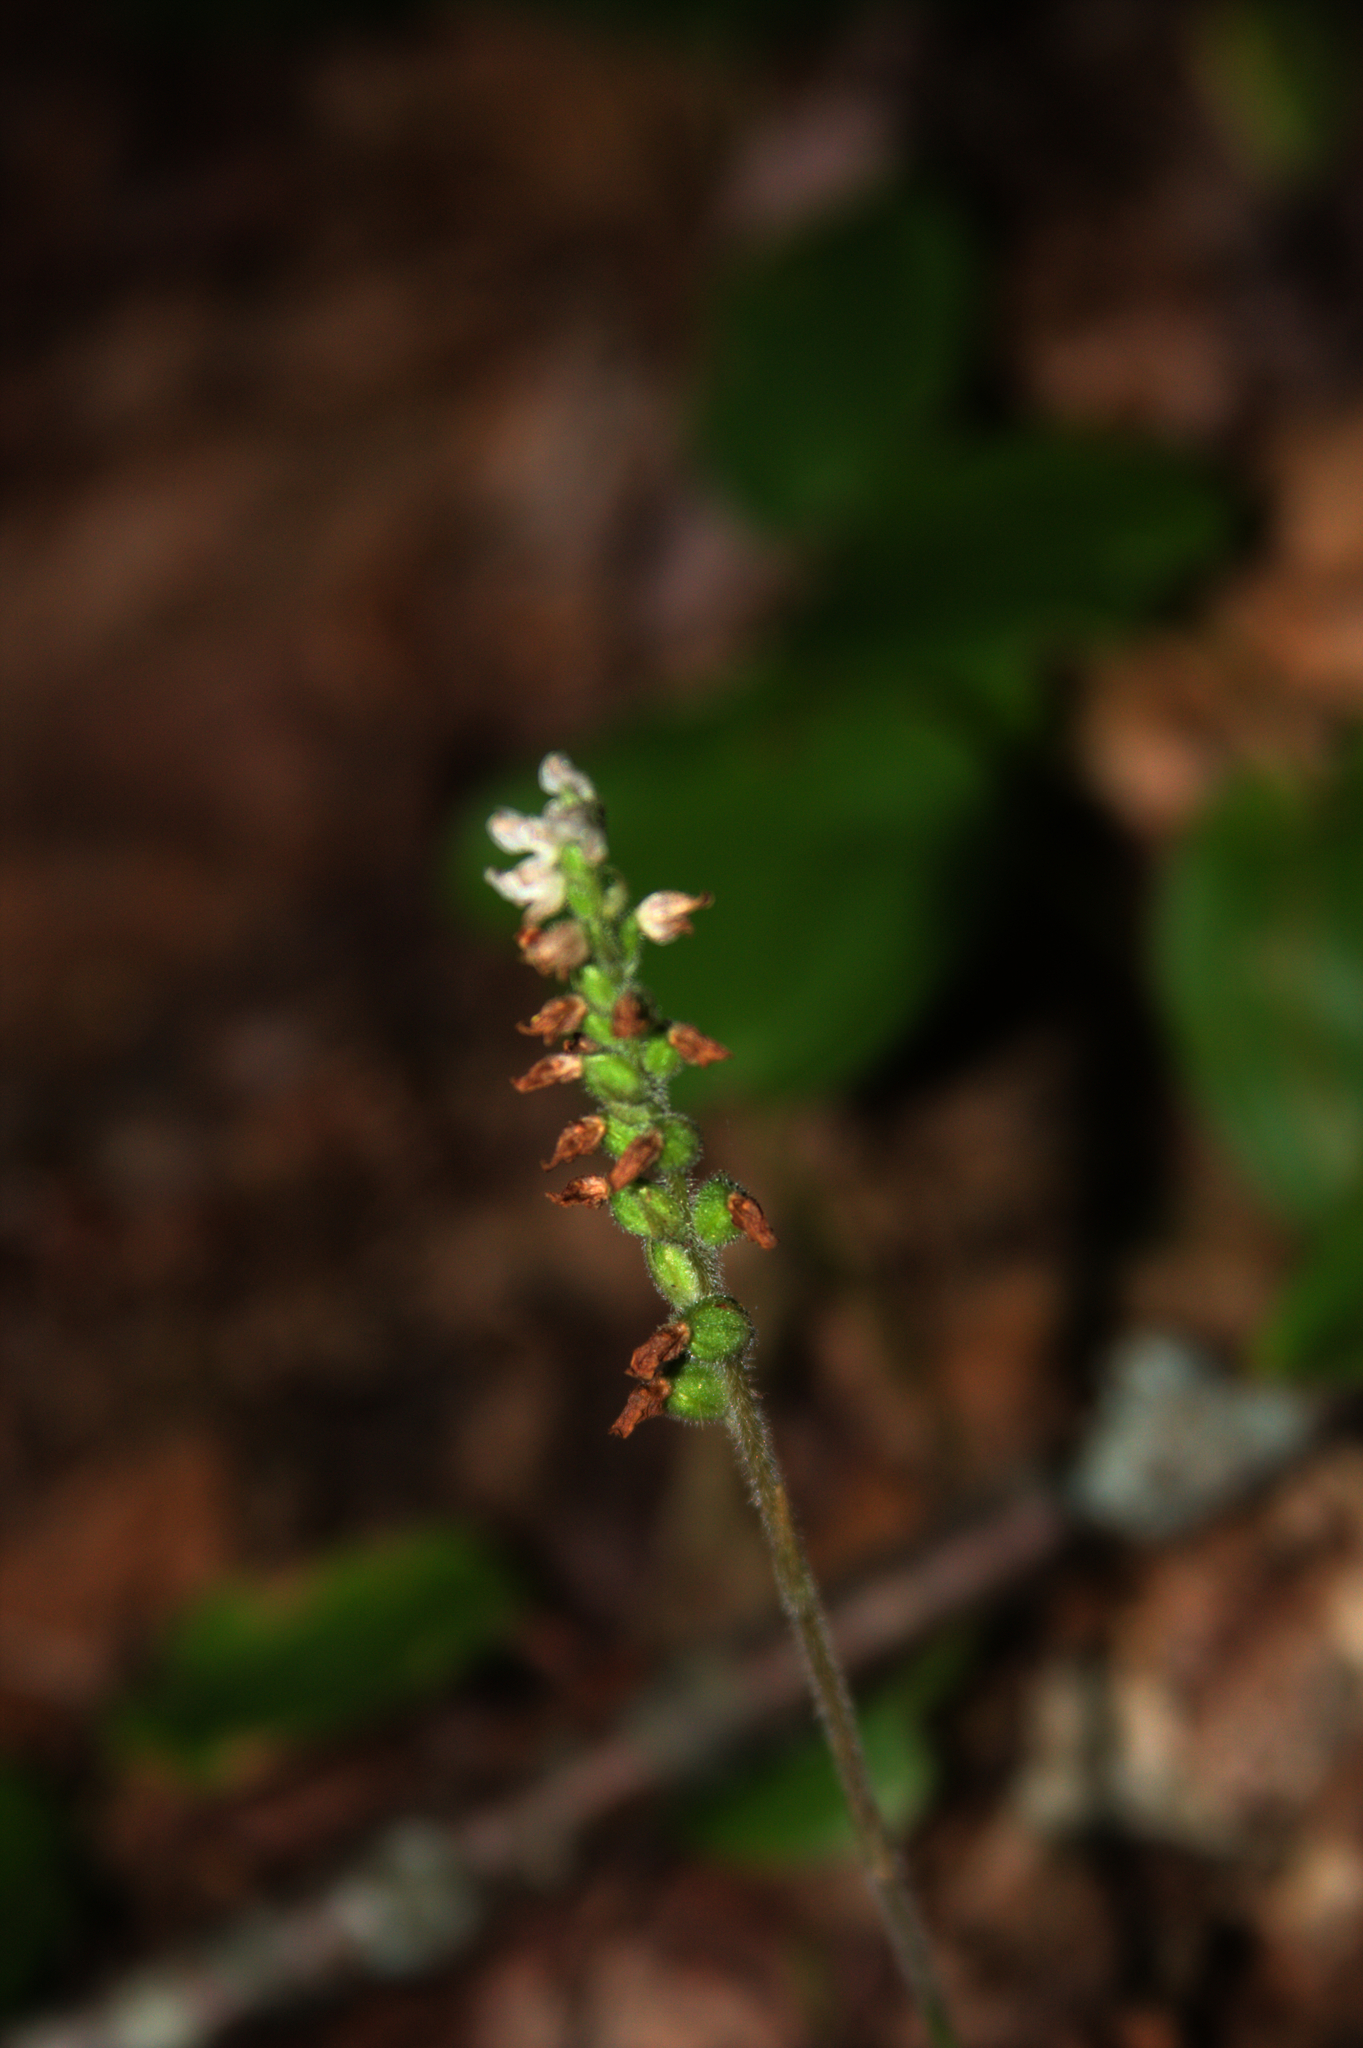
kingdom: Plantae
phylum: Tracheophyta
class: Liliopsida
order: Asparagales
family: Orchidaceae
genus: Goodyera
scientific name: Goodyera tesselata
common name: Checkered rattlesnake-plantain
